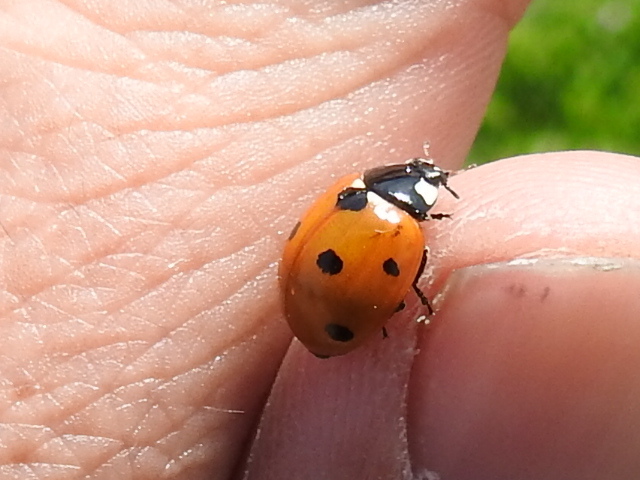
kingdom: Animalia
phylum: Arthropoda
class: Insecta
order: Coleoptera
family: Coccinellidae
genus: Coccinella
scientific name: Coccinella septempunctata
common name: Sevenspotted lady beetle
